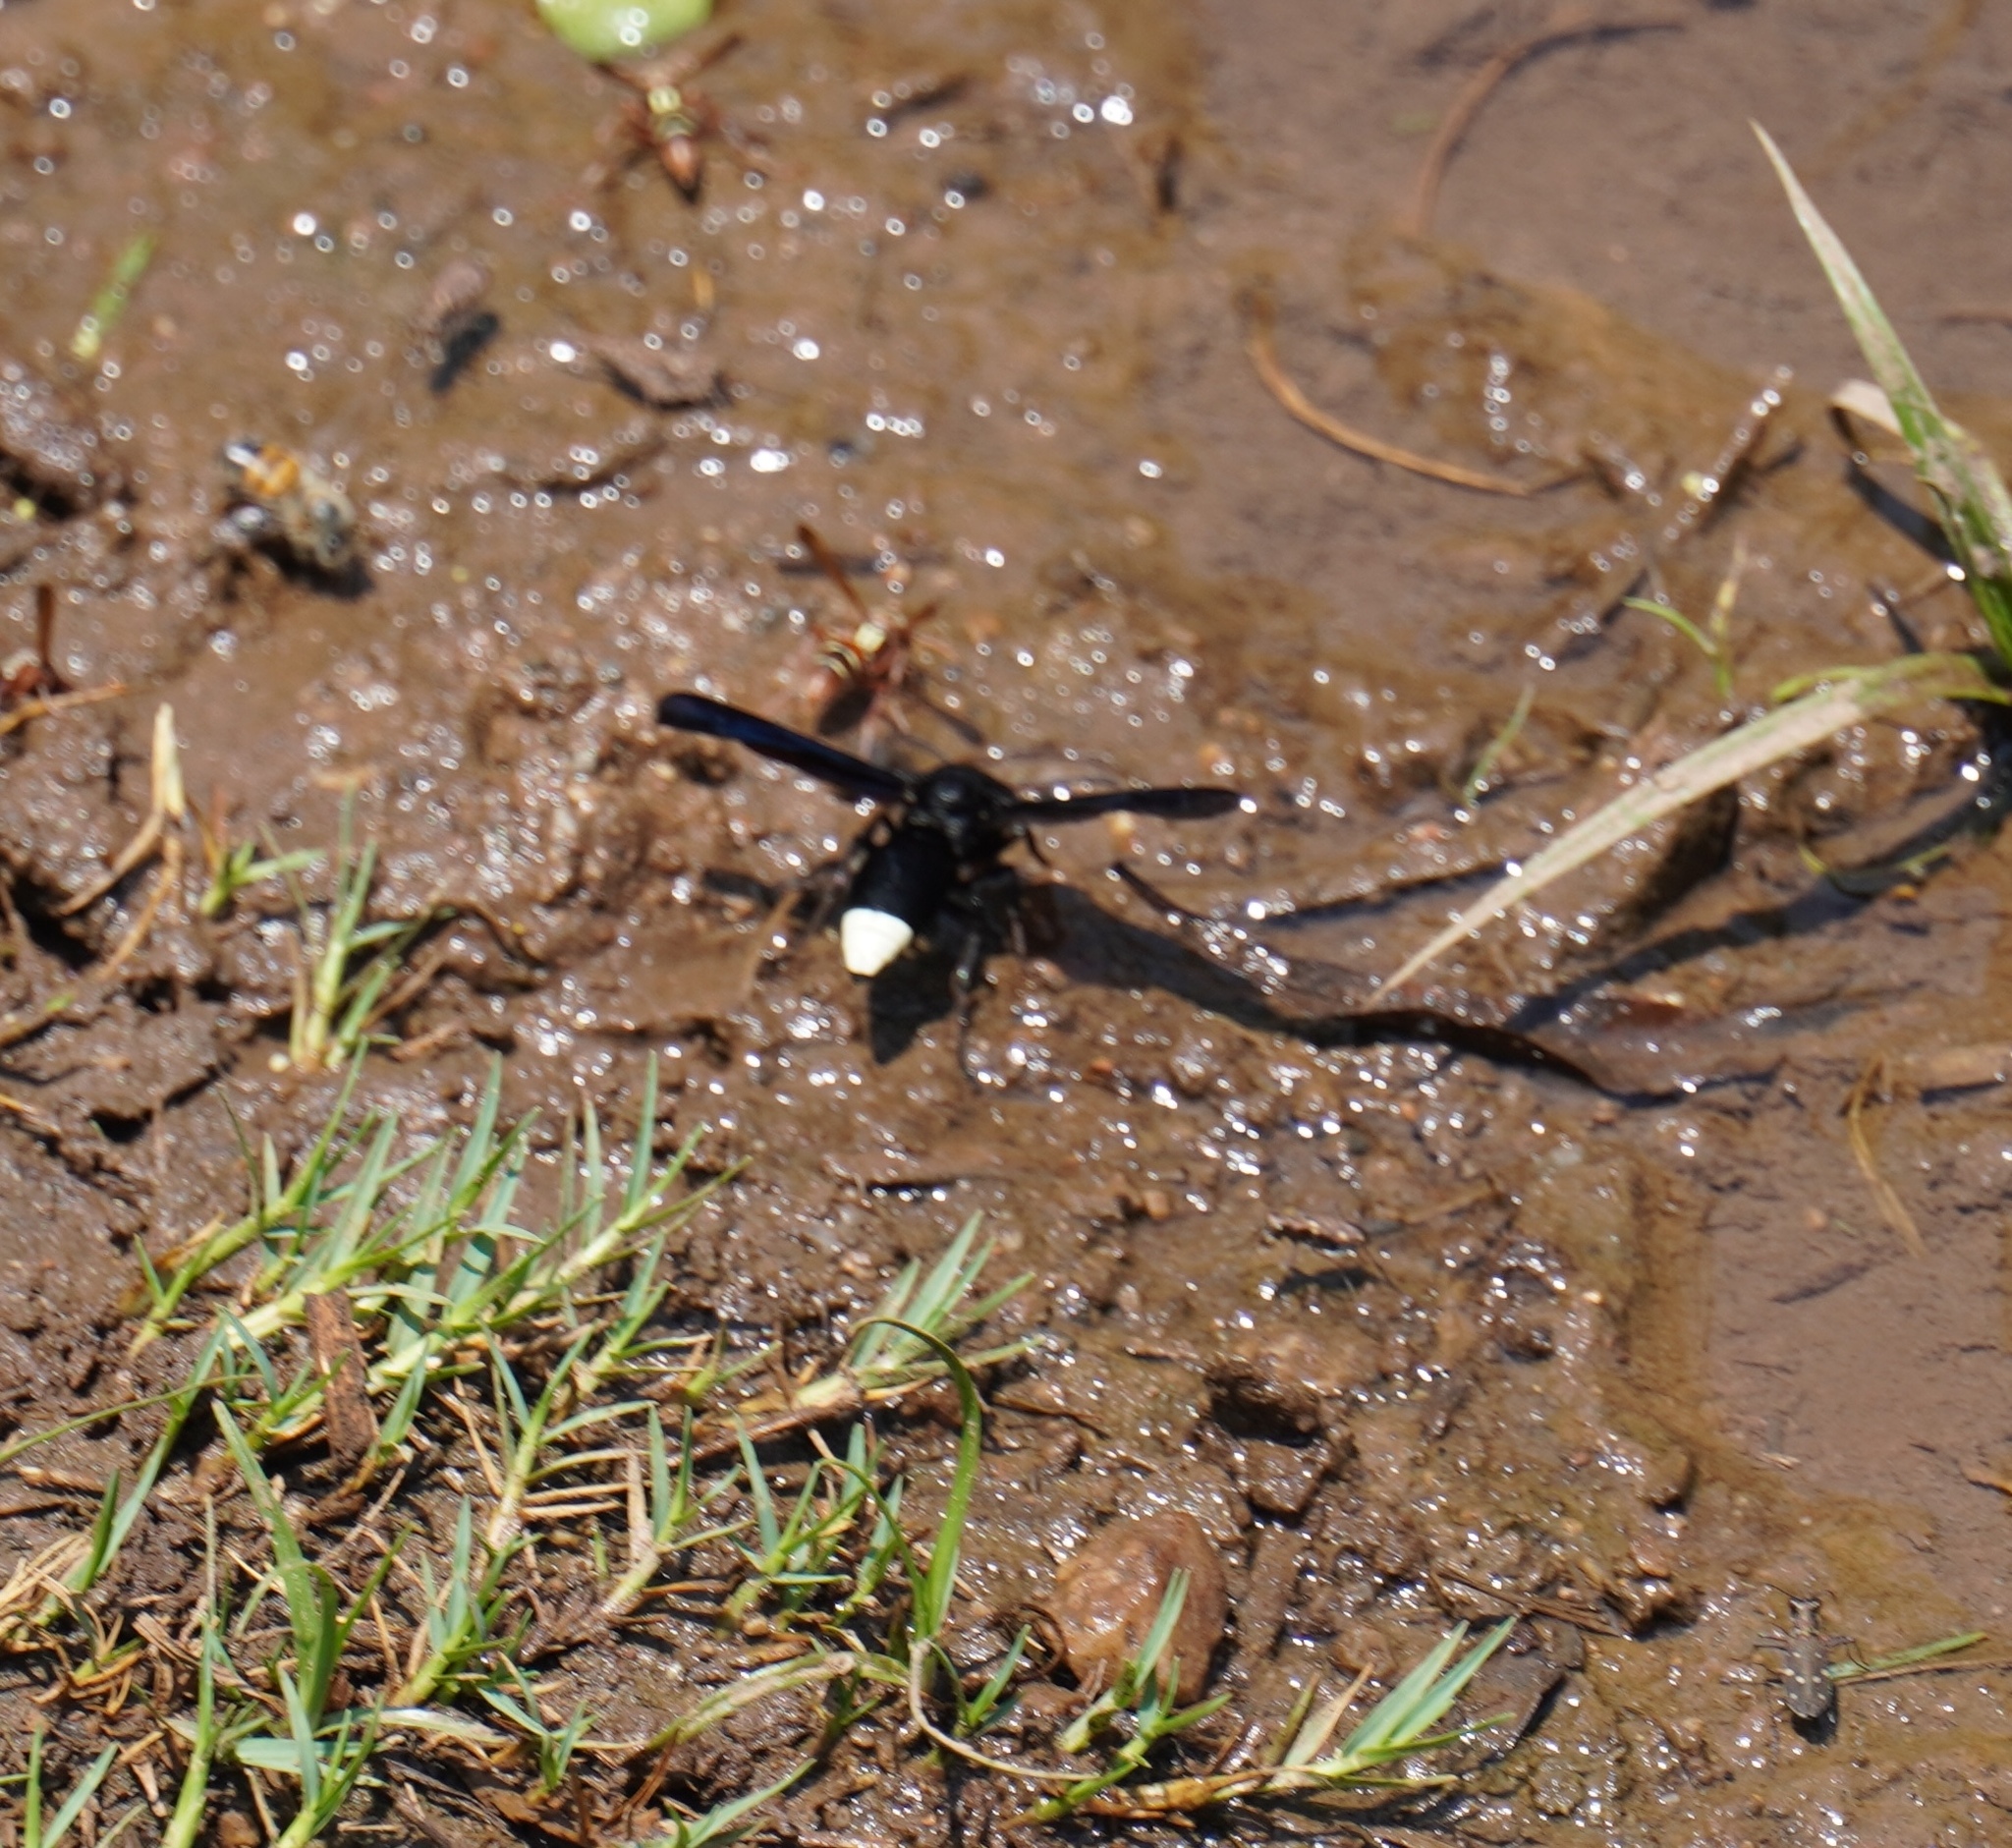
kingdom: Animalia
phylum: Arthropoda
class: Insecta
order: Hymenoptera
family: Vespidae
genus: Synagris
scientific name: Synagris mirabilis
